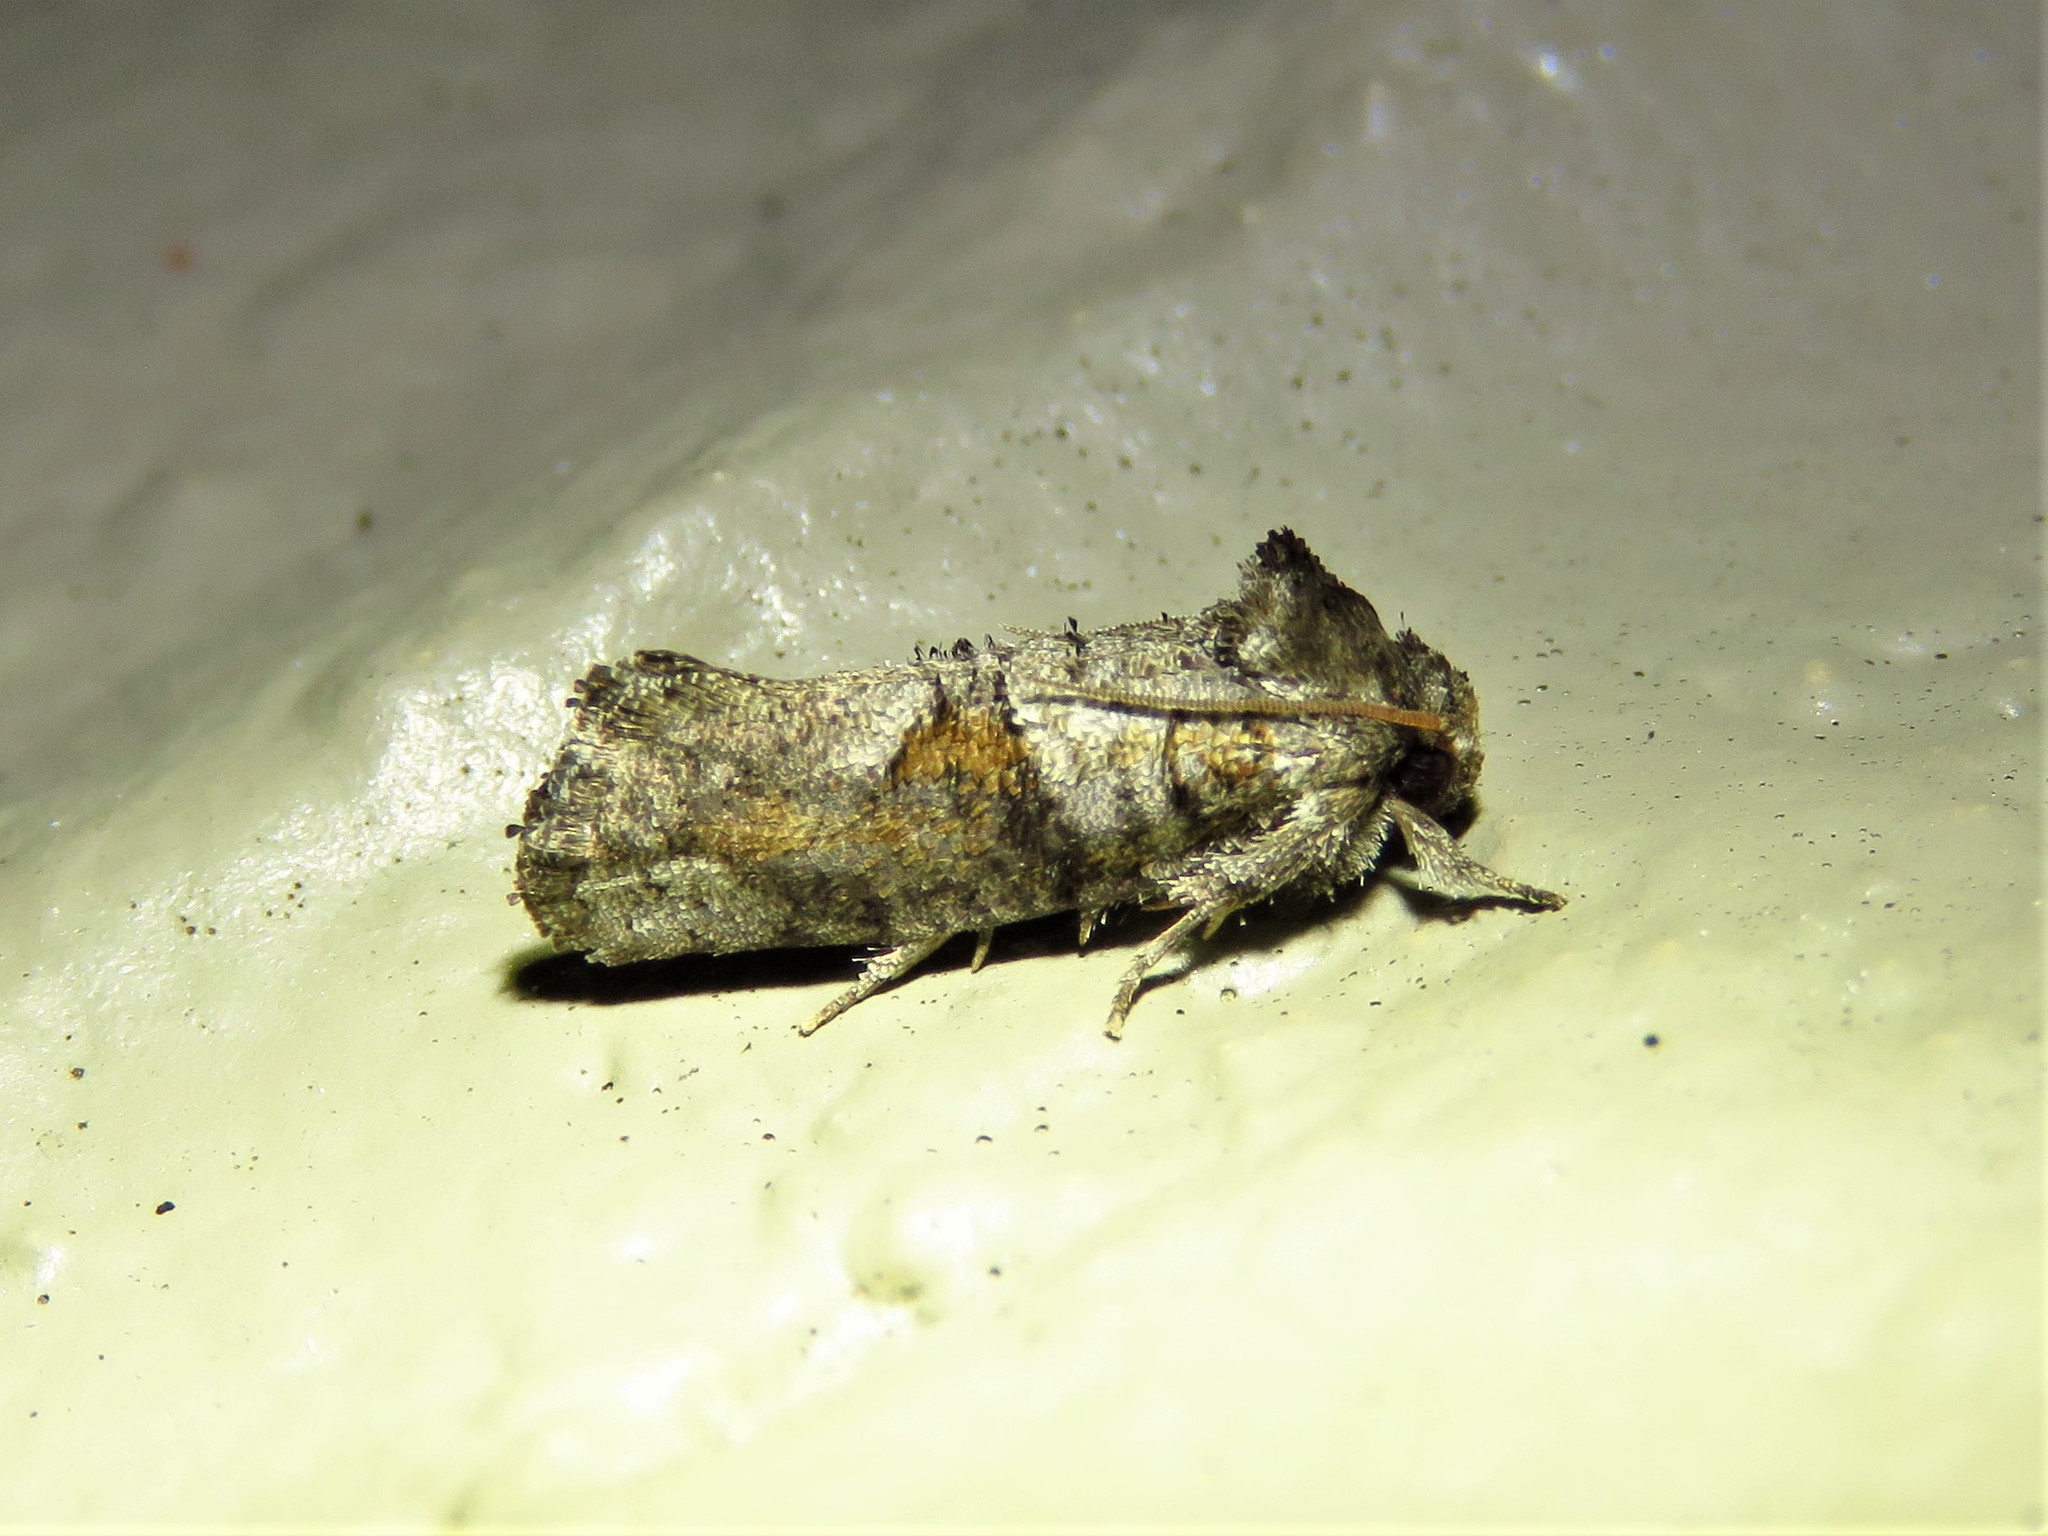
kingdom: Animalia
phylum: Arthropoda
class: Insecta
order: Lepidoptera
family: Tineidae
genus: Acrolophus
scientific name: Acrolophus piger
